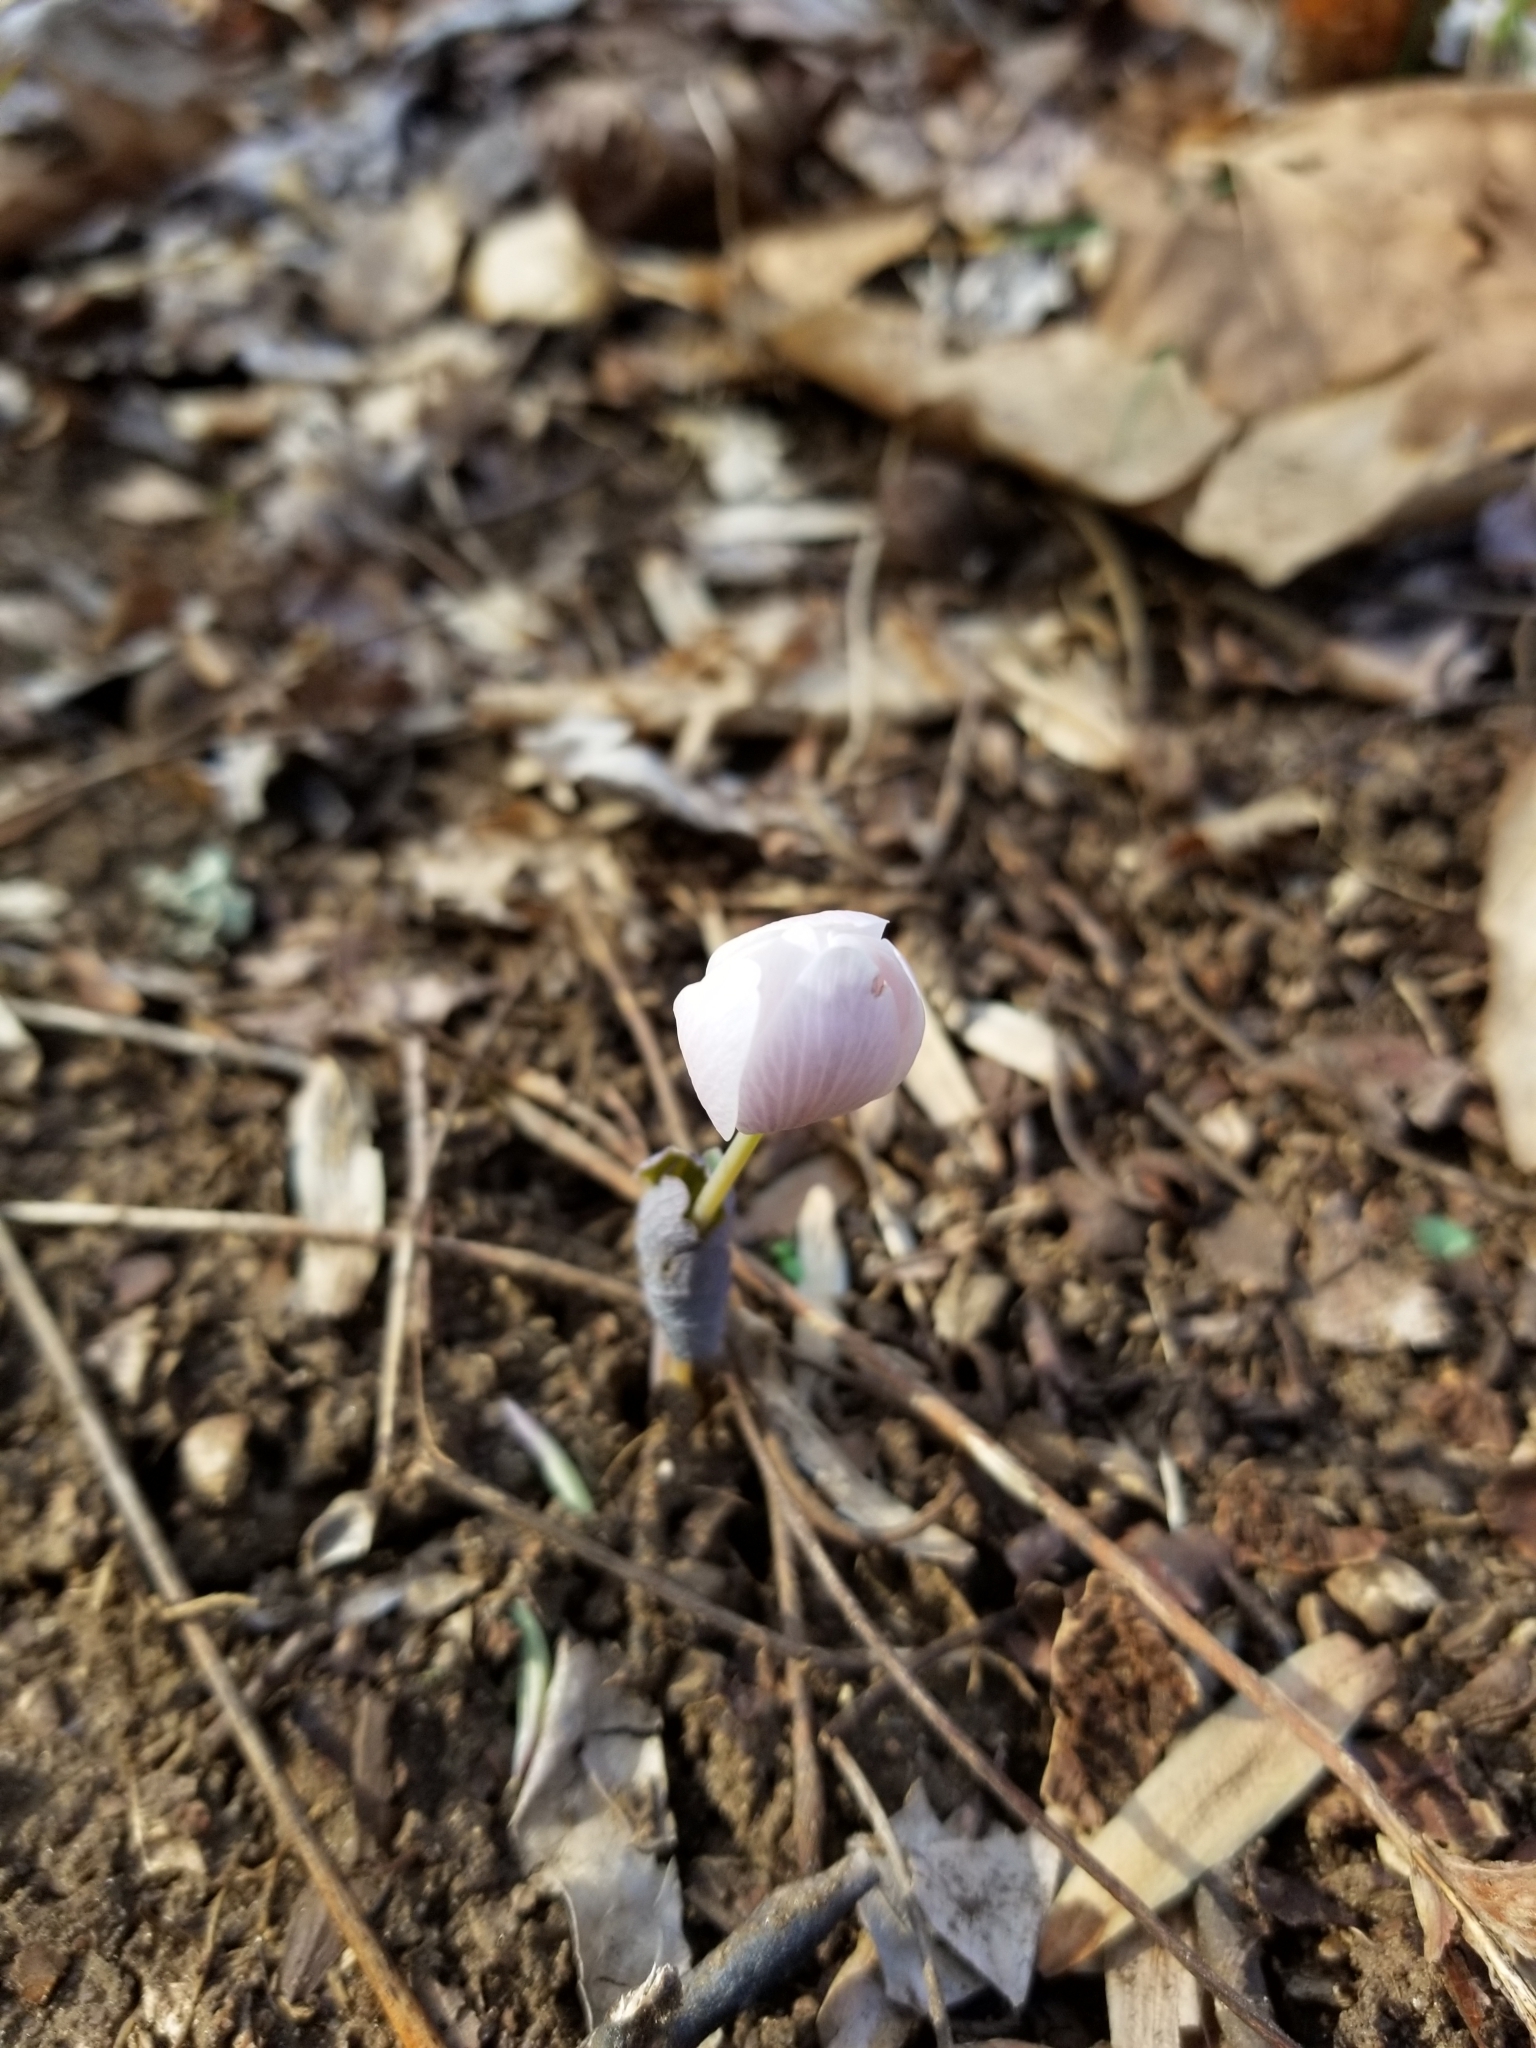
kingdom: Plantae
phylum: Tracheophyta
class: Magnoliopsida
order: Ranunculales
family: Papaveraceae
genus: Sanguinaria
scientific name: Sanguinaria canadensis
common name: Bloodroot
